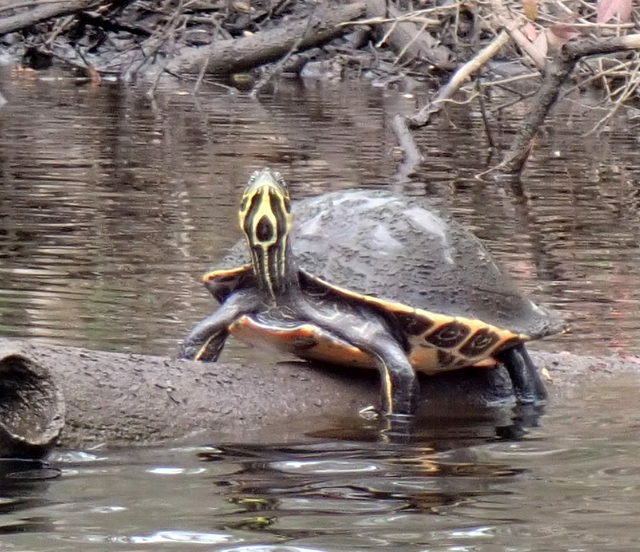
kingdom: Animalia
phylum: Chordata
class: Testudines
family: Emydidae
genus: Pseudemys
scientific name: Pseudemys concinna
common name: Eastern river cooter
